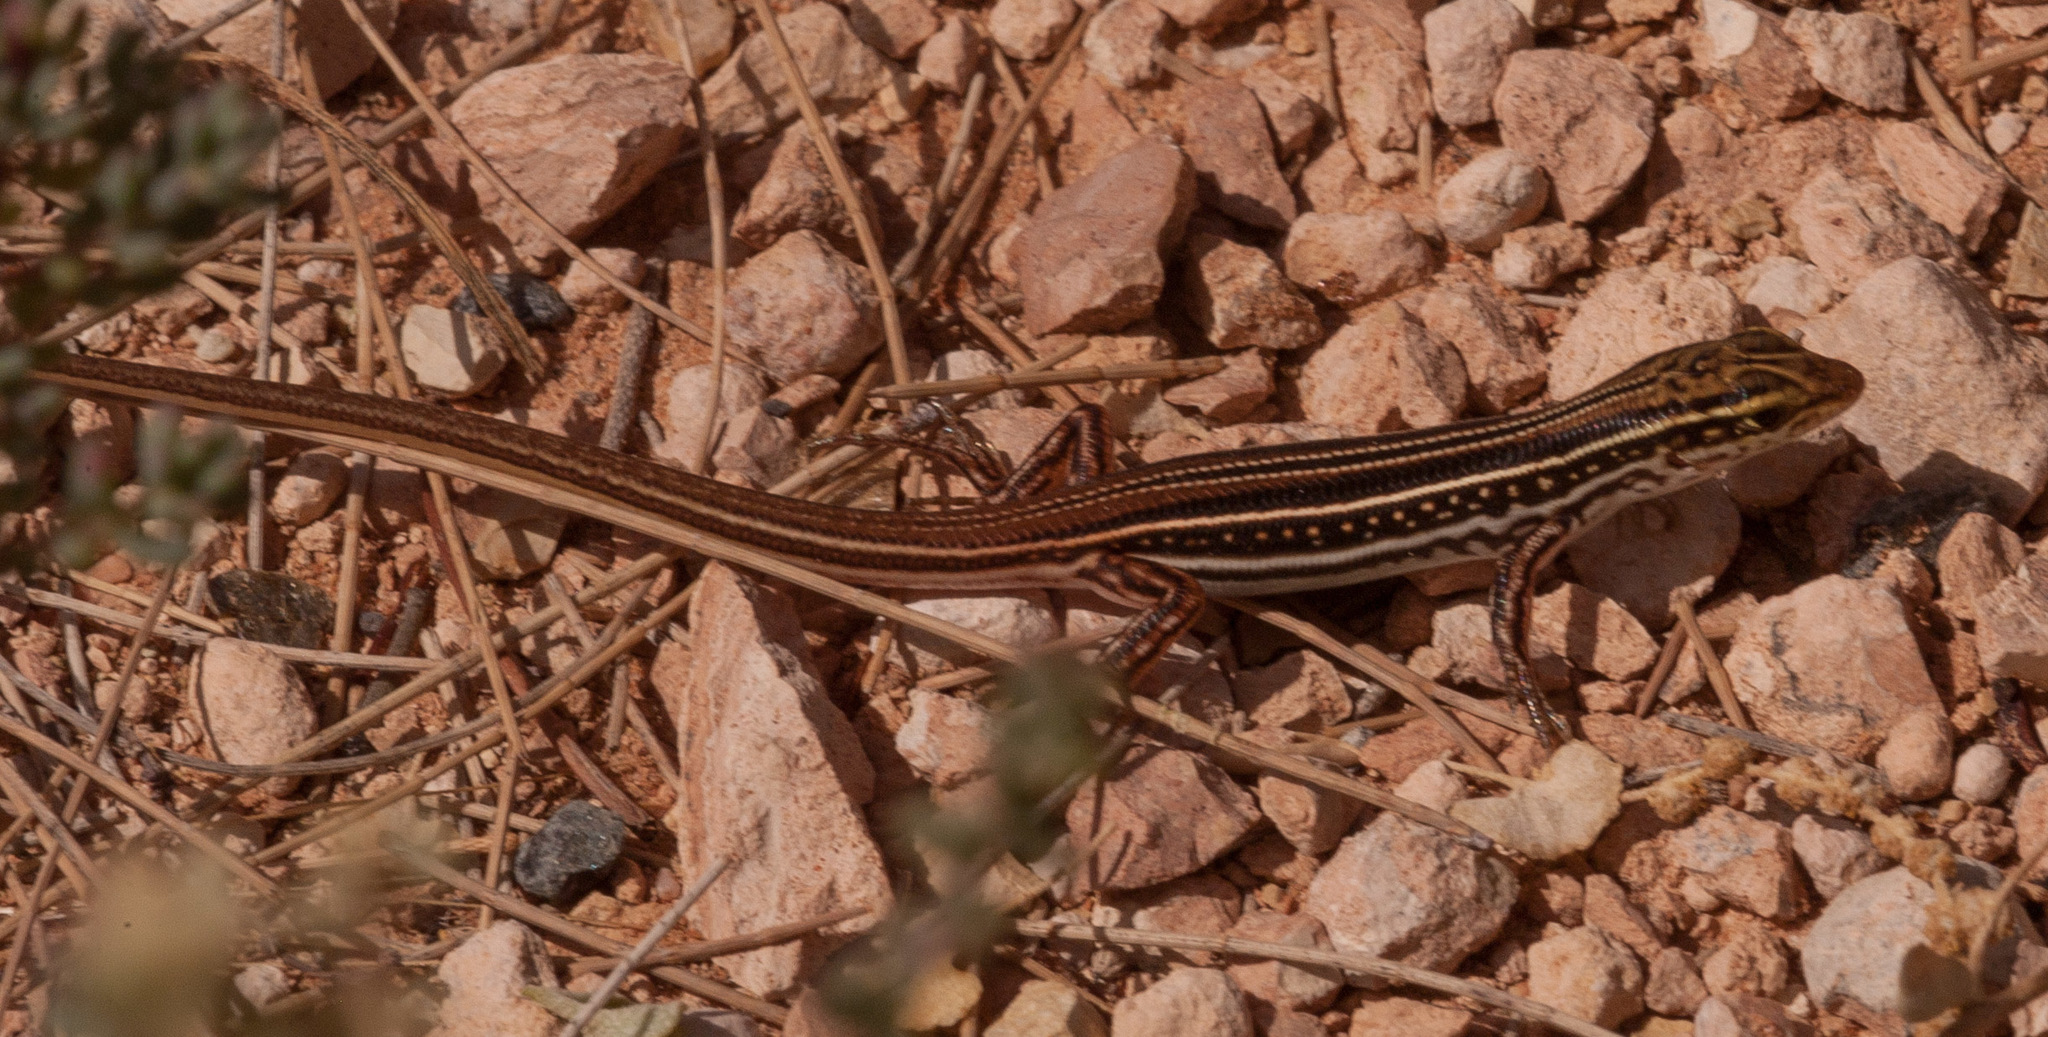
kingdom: Animalia
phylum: Chordata
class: Squamata
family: Scincidae
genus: Ctenotus
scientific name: Ctenotus regius
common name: Pale-rumped ctenotus
